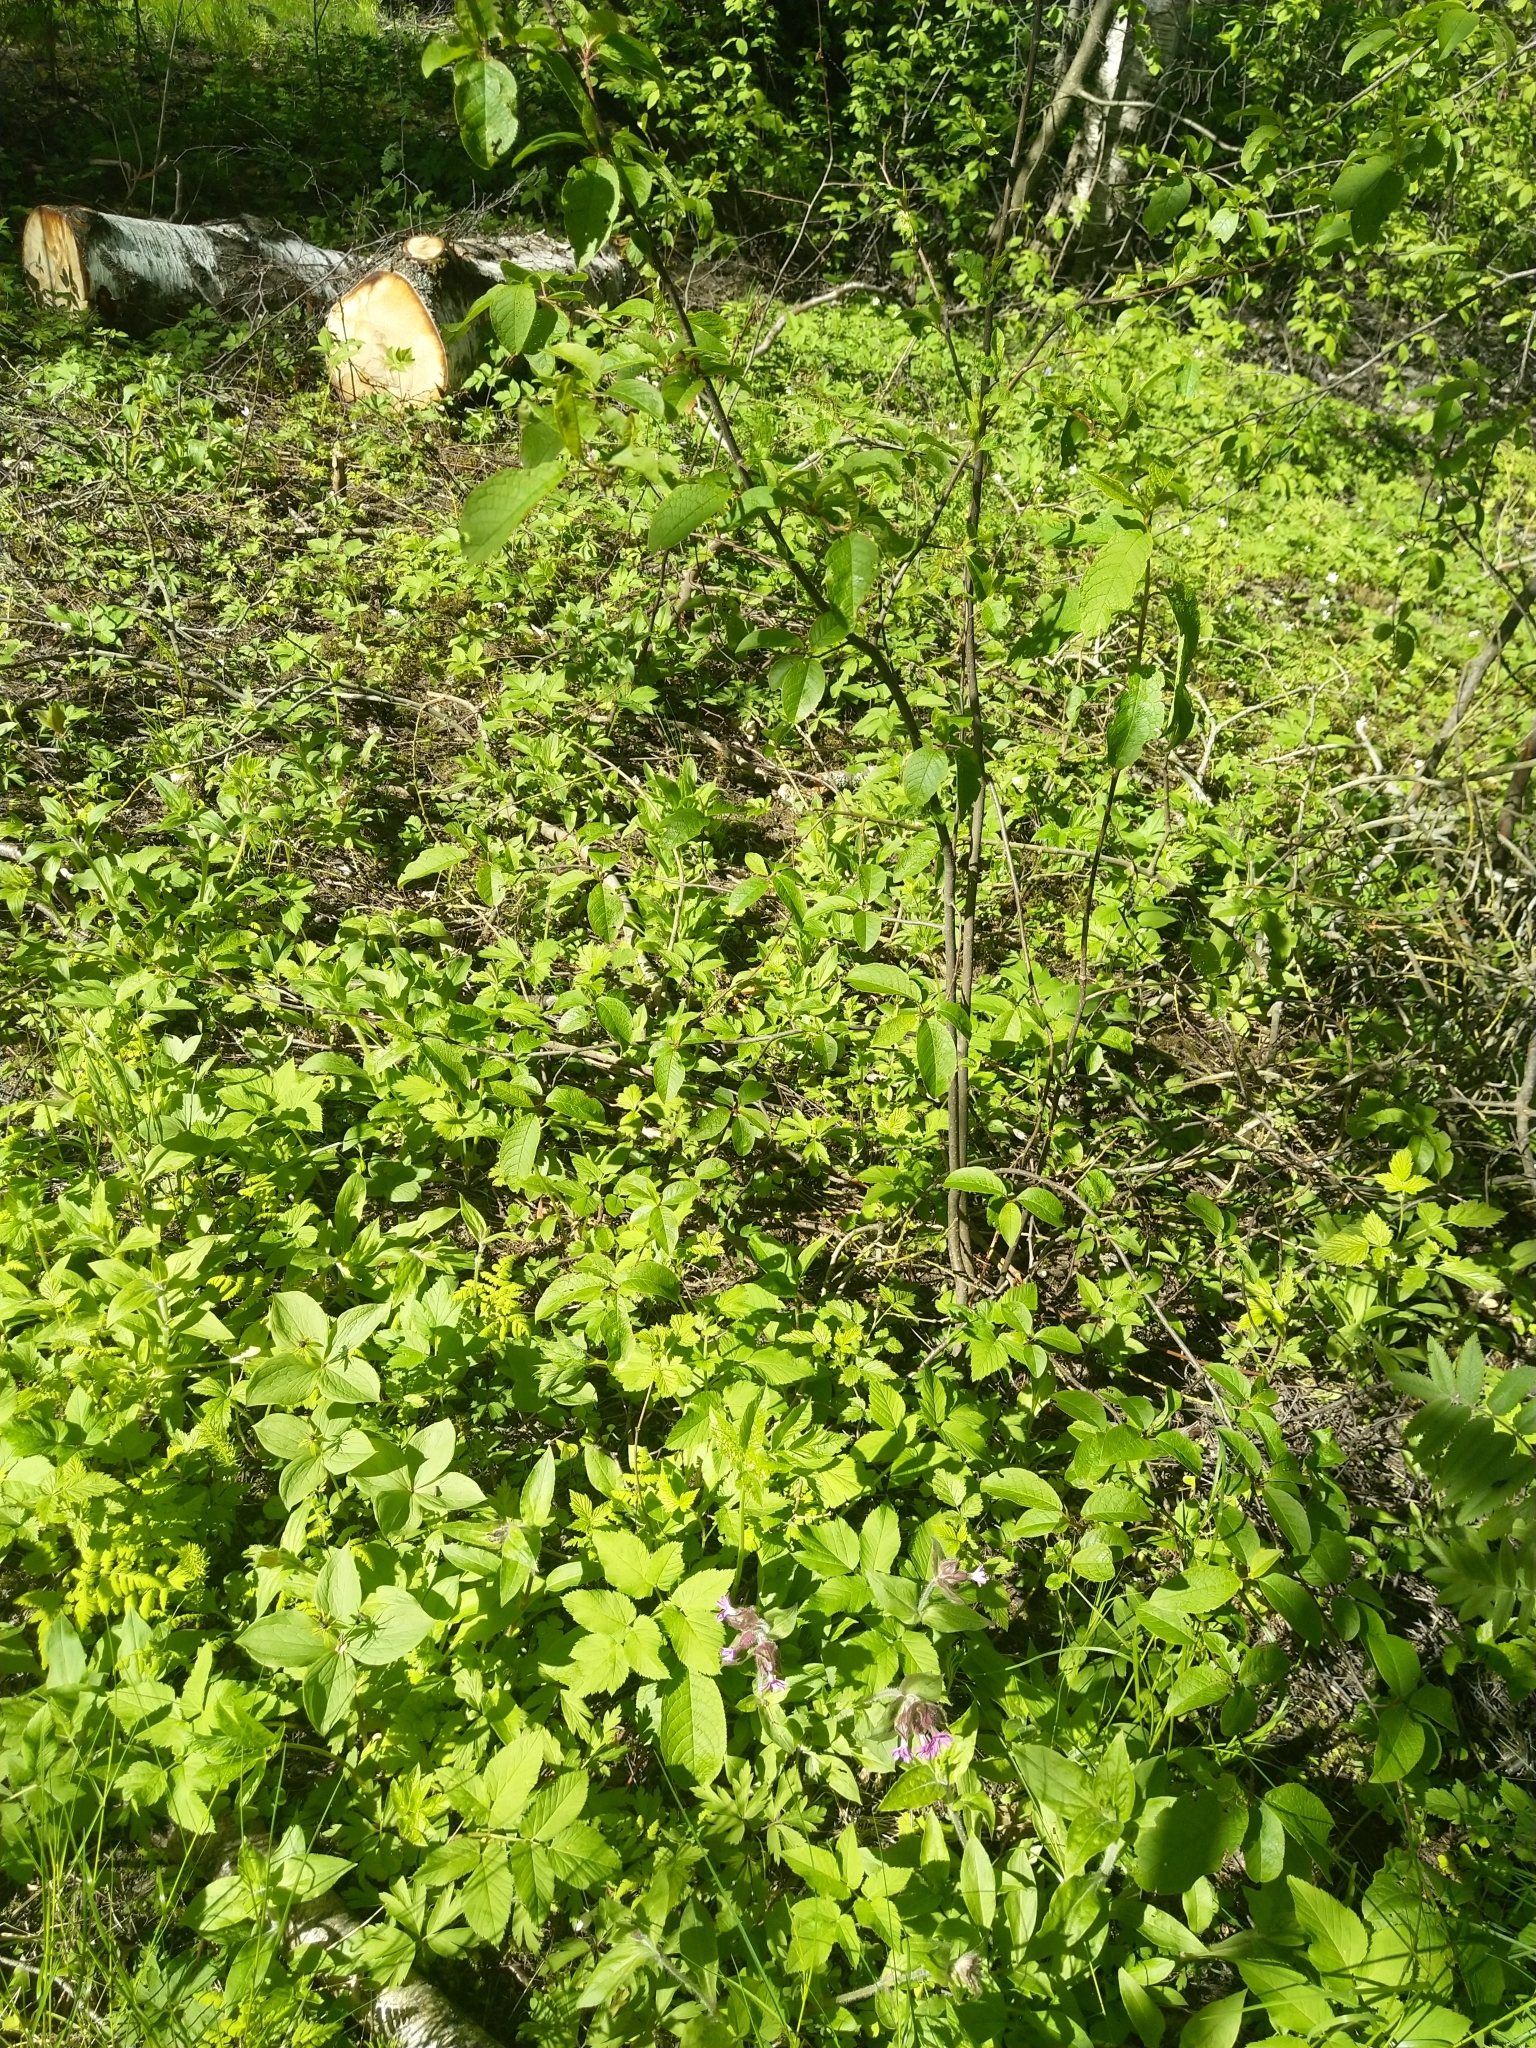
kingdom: Plantae
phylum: Tracheophyta
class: Magnoliopsida
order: Caryophyllales
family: Caryophyllaceae
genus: Silene
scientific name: Silene dioica
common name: Red campion
